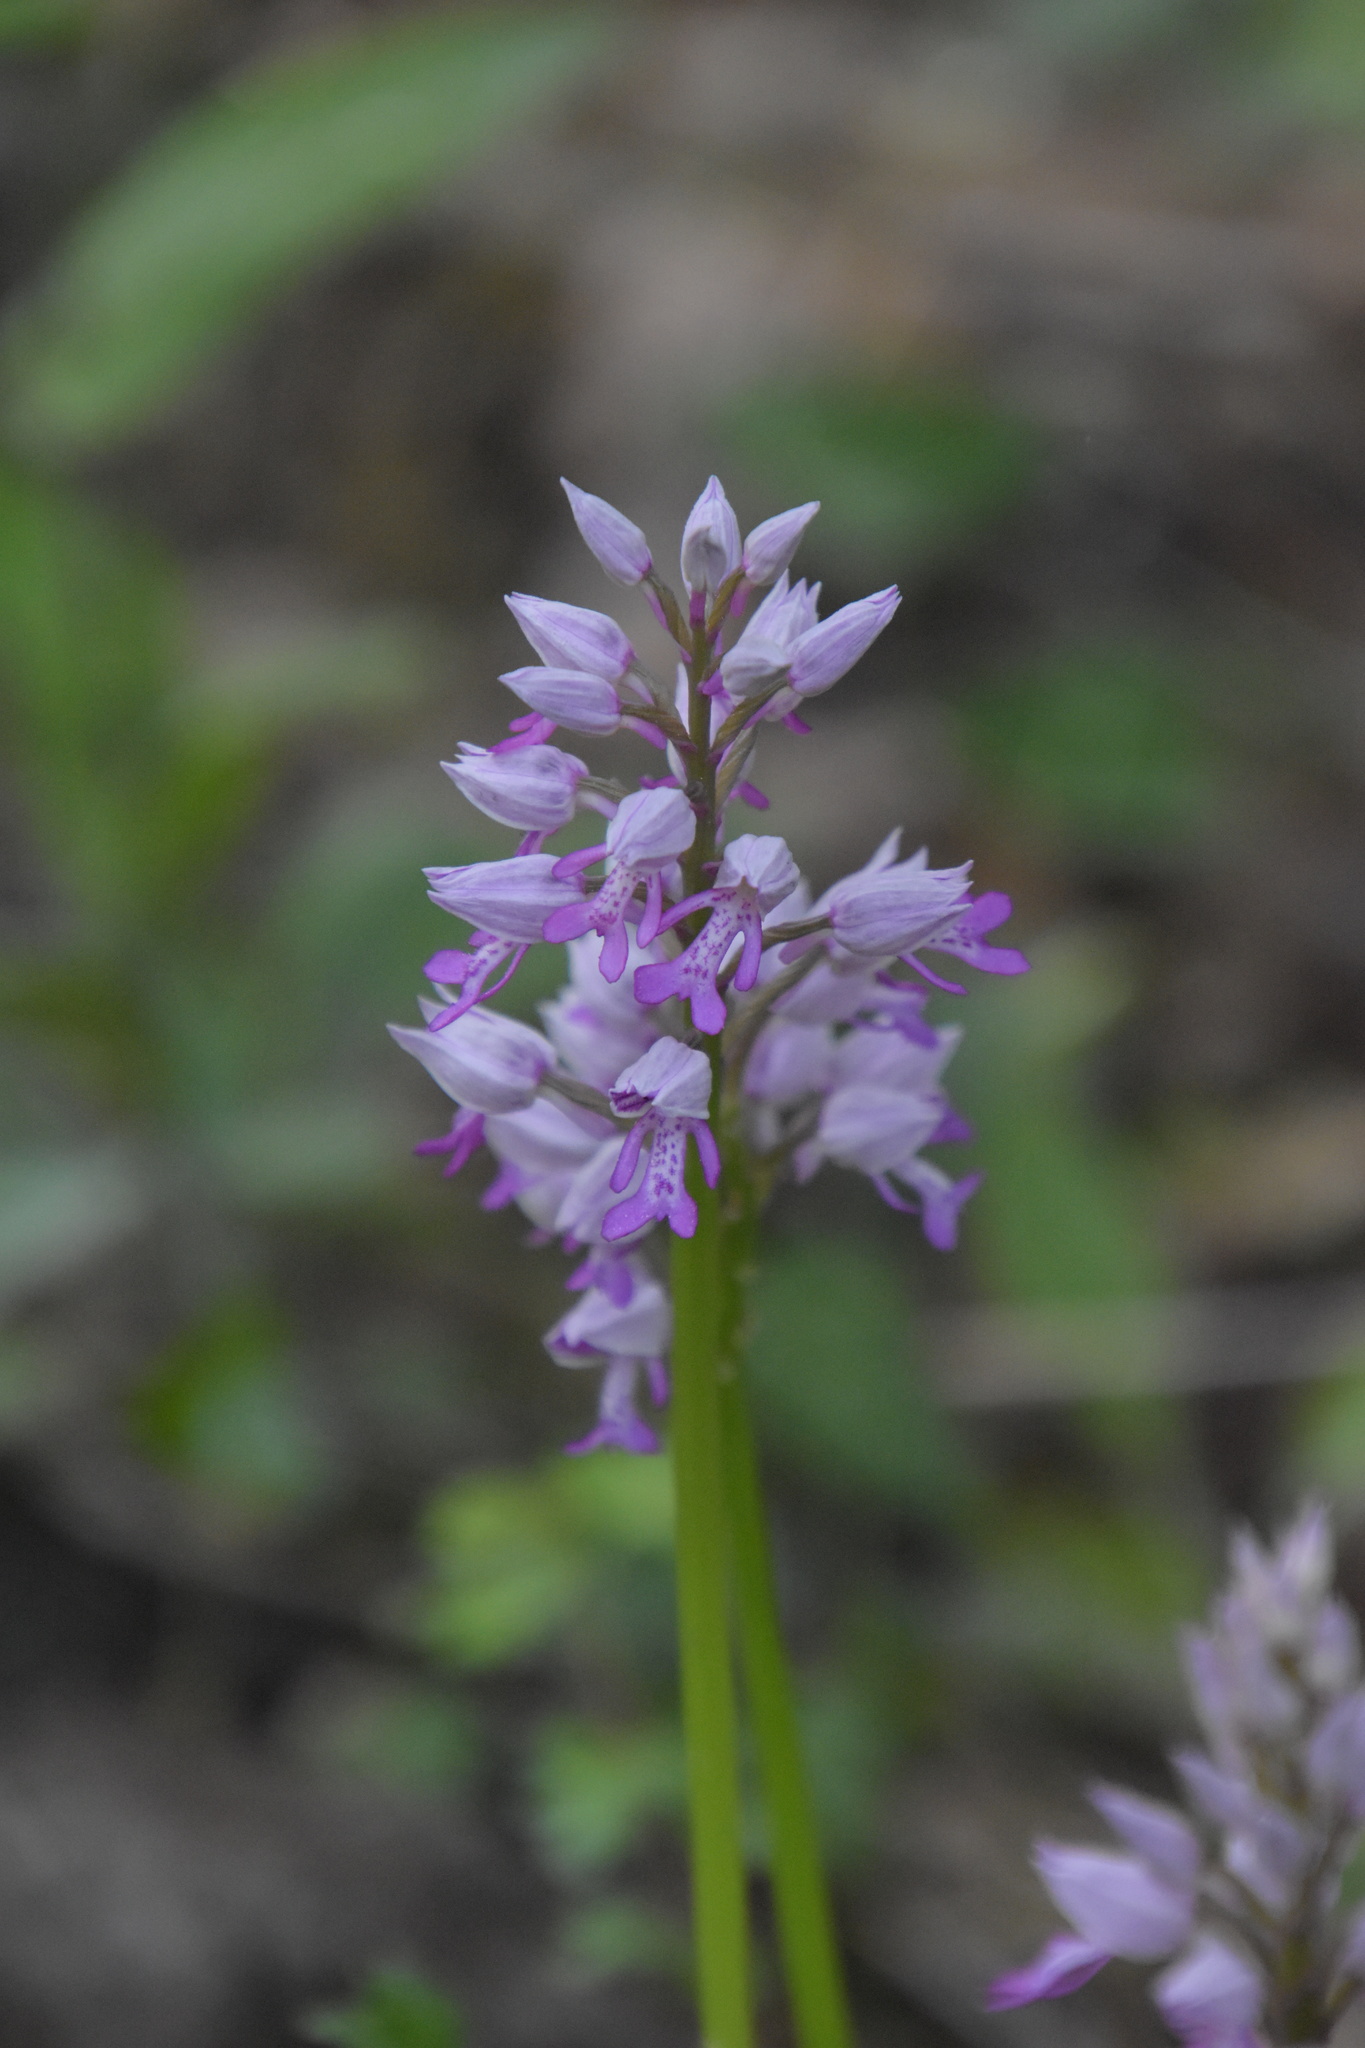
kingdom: Plantae
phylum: Tracheophyta
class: Liliopsida
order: Asparagales
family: Orchidaceae
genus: Orchis
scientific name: Orchis militaris
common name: Military orchid
